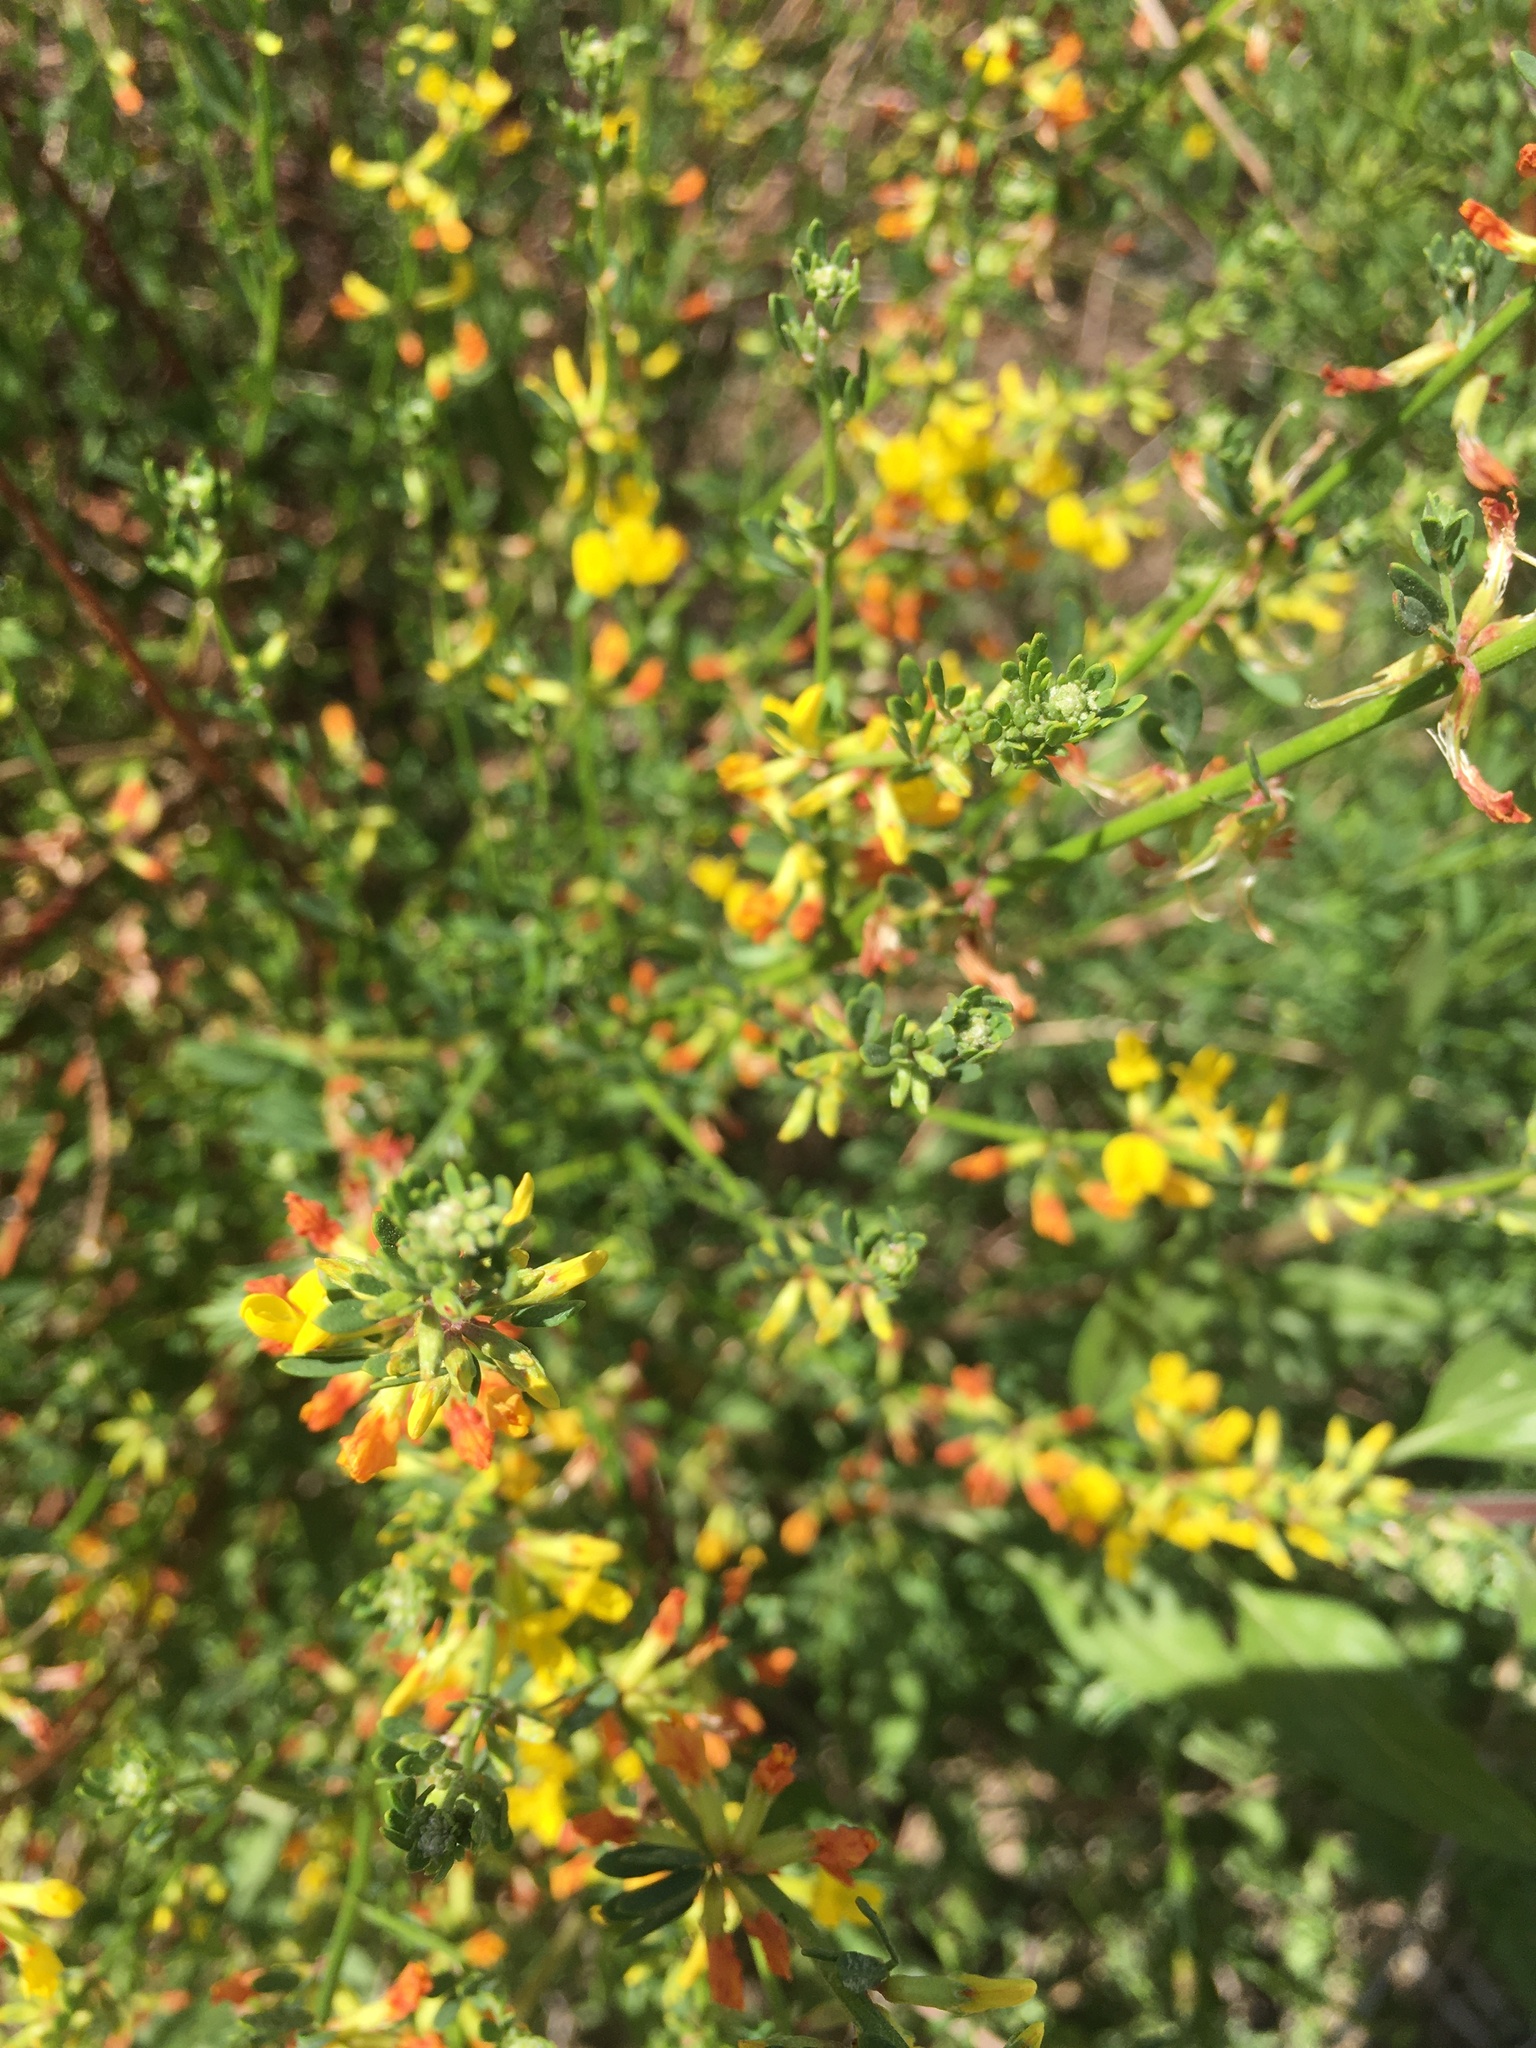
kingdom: Plantae
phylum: Tracheophyta
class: Magnoliopsida
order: Fabales
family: Fabaceae
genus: Acmispon
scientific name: Acmispon glaber
